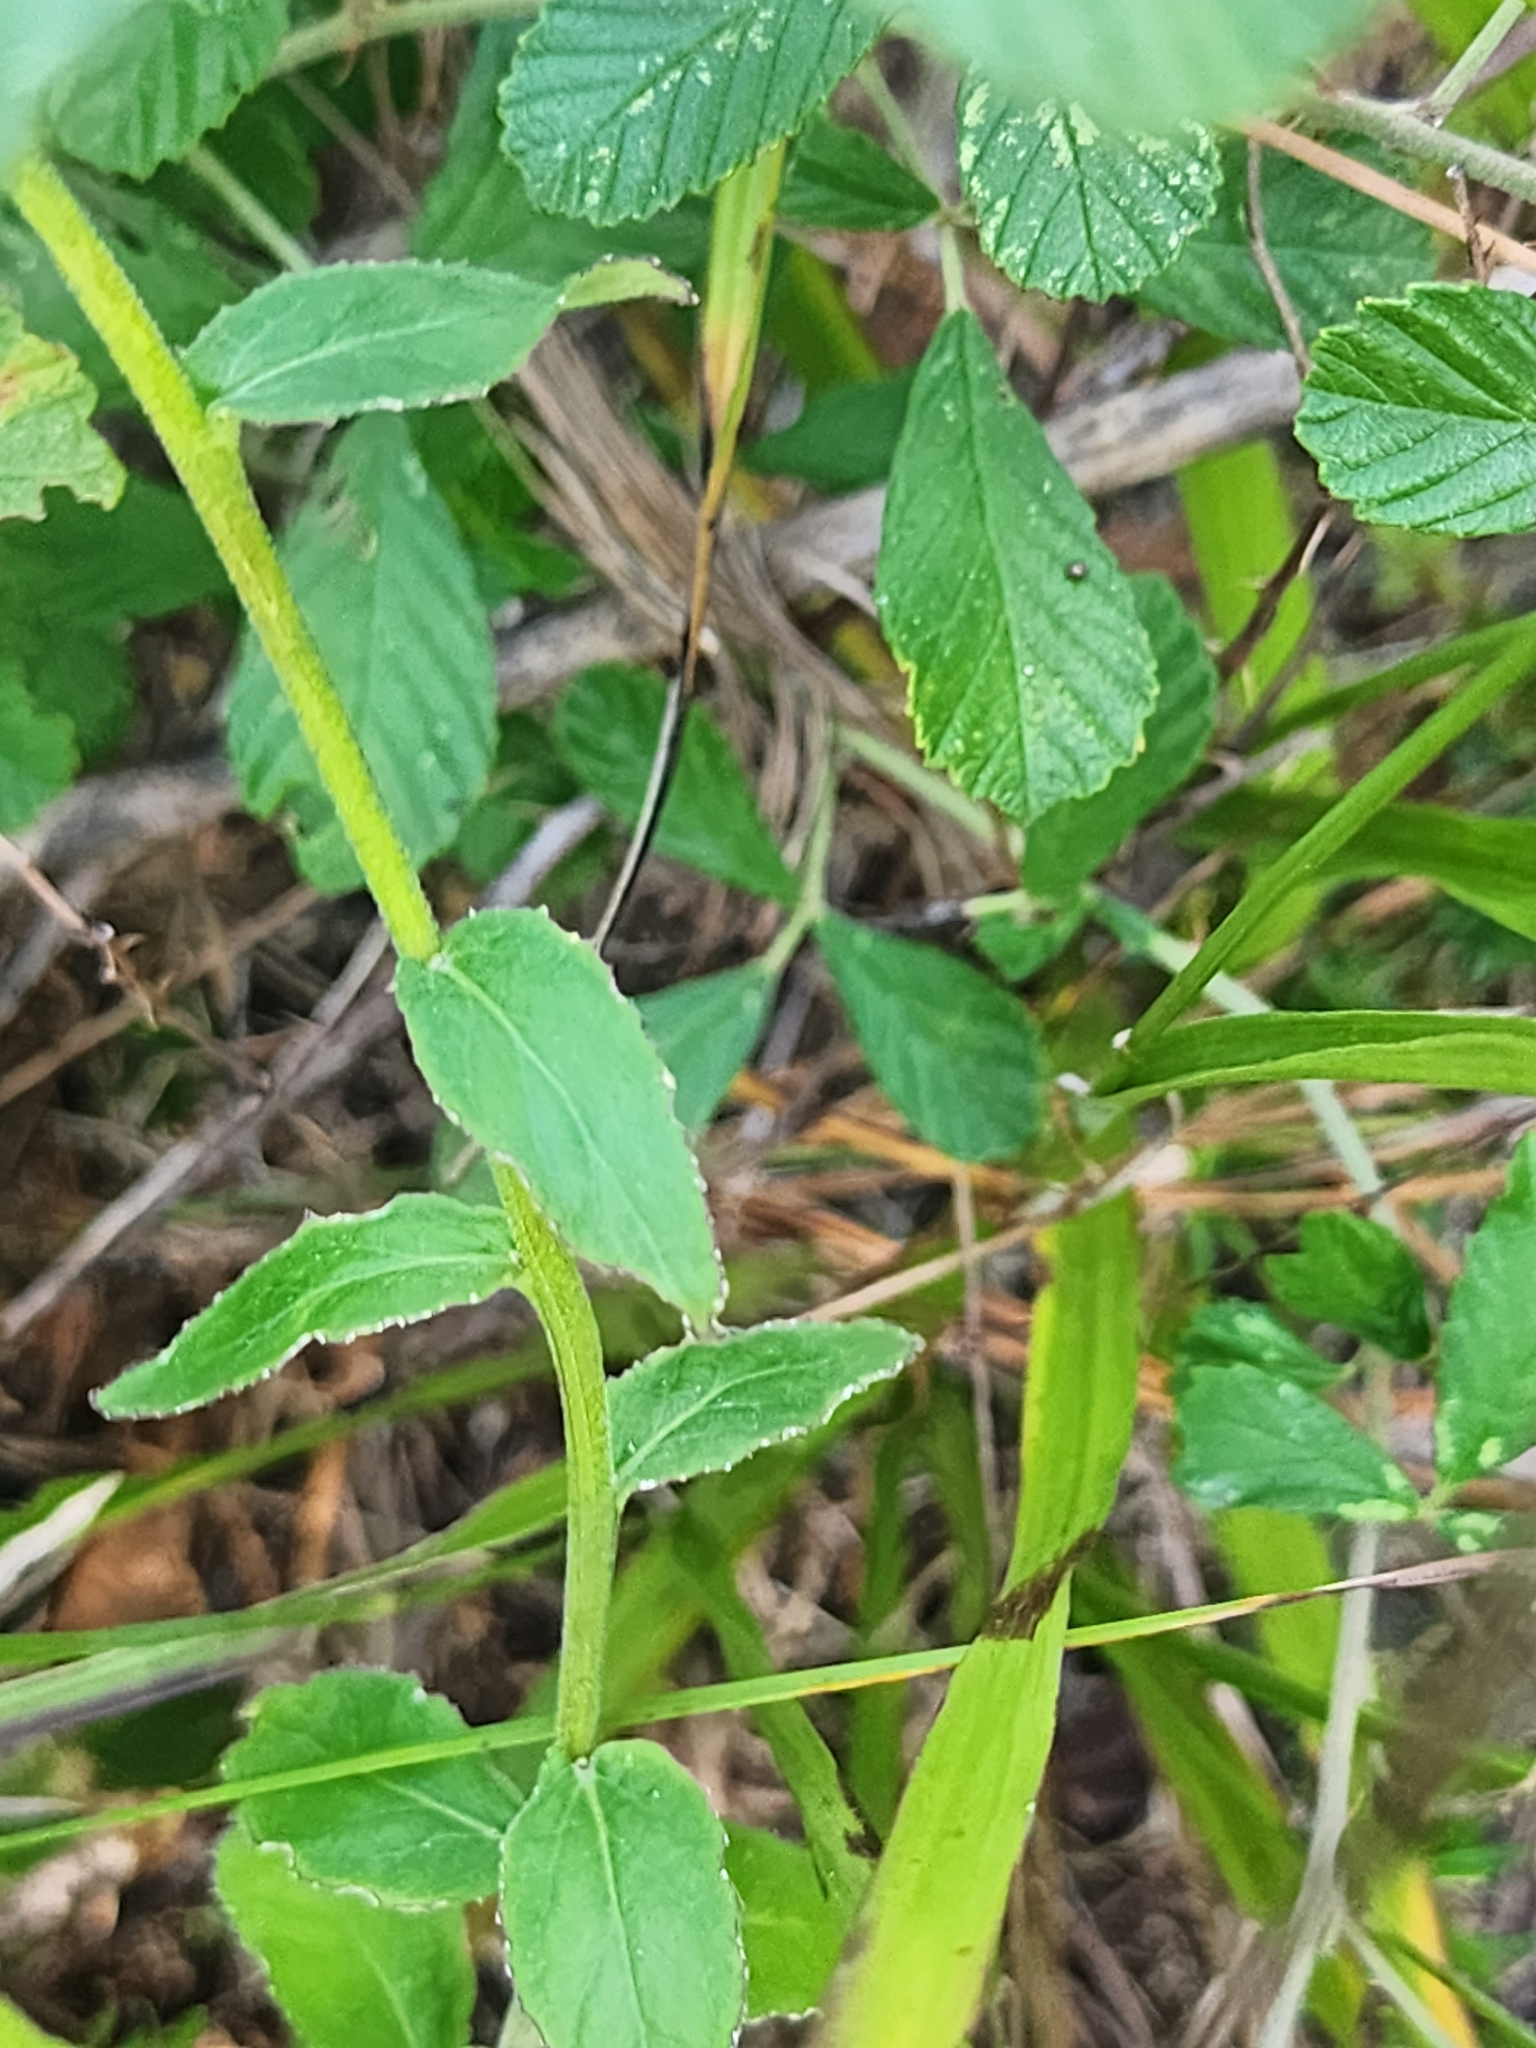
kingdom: Plantae
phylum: Tracheophyta
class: Magnoliopsida
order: Asterales
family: Campanulaceae
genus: Lobelia
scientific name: Lobelia puberula
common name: Purple dewdrop
